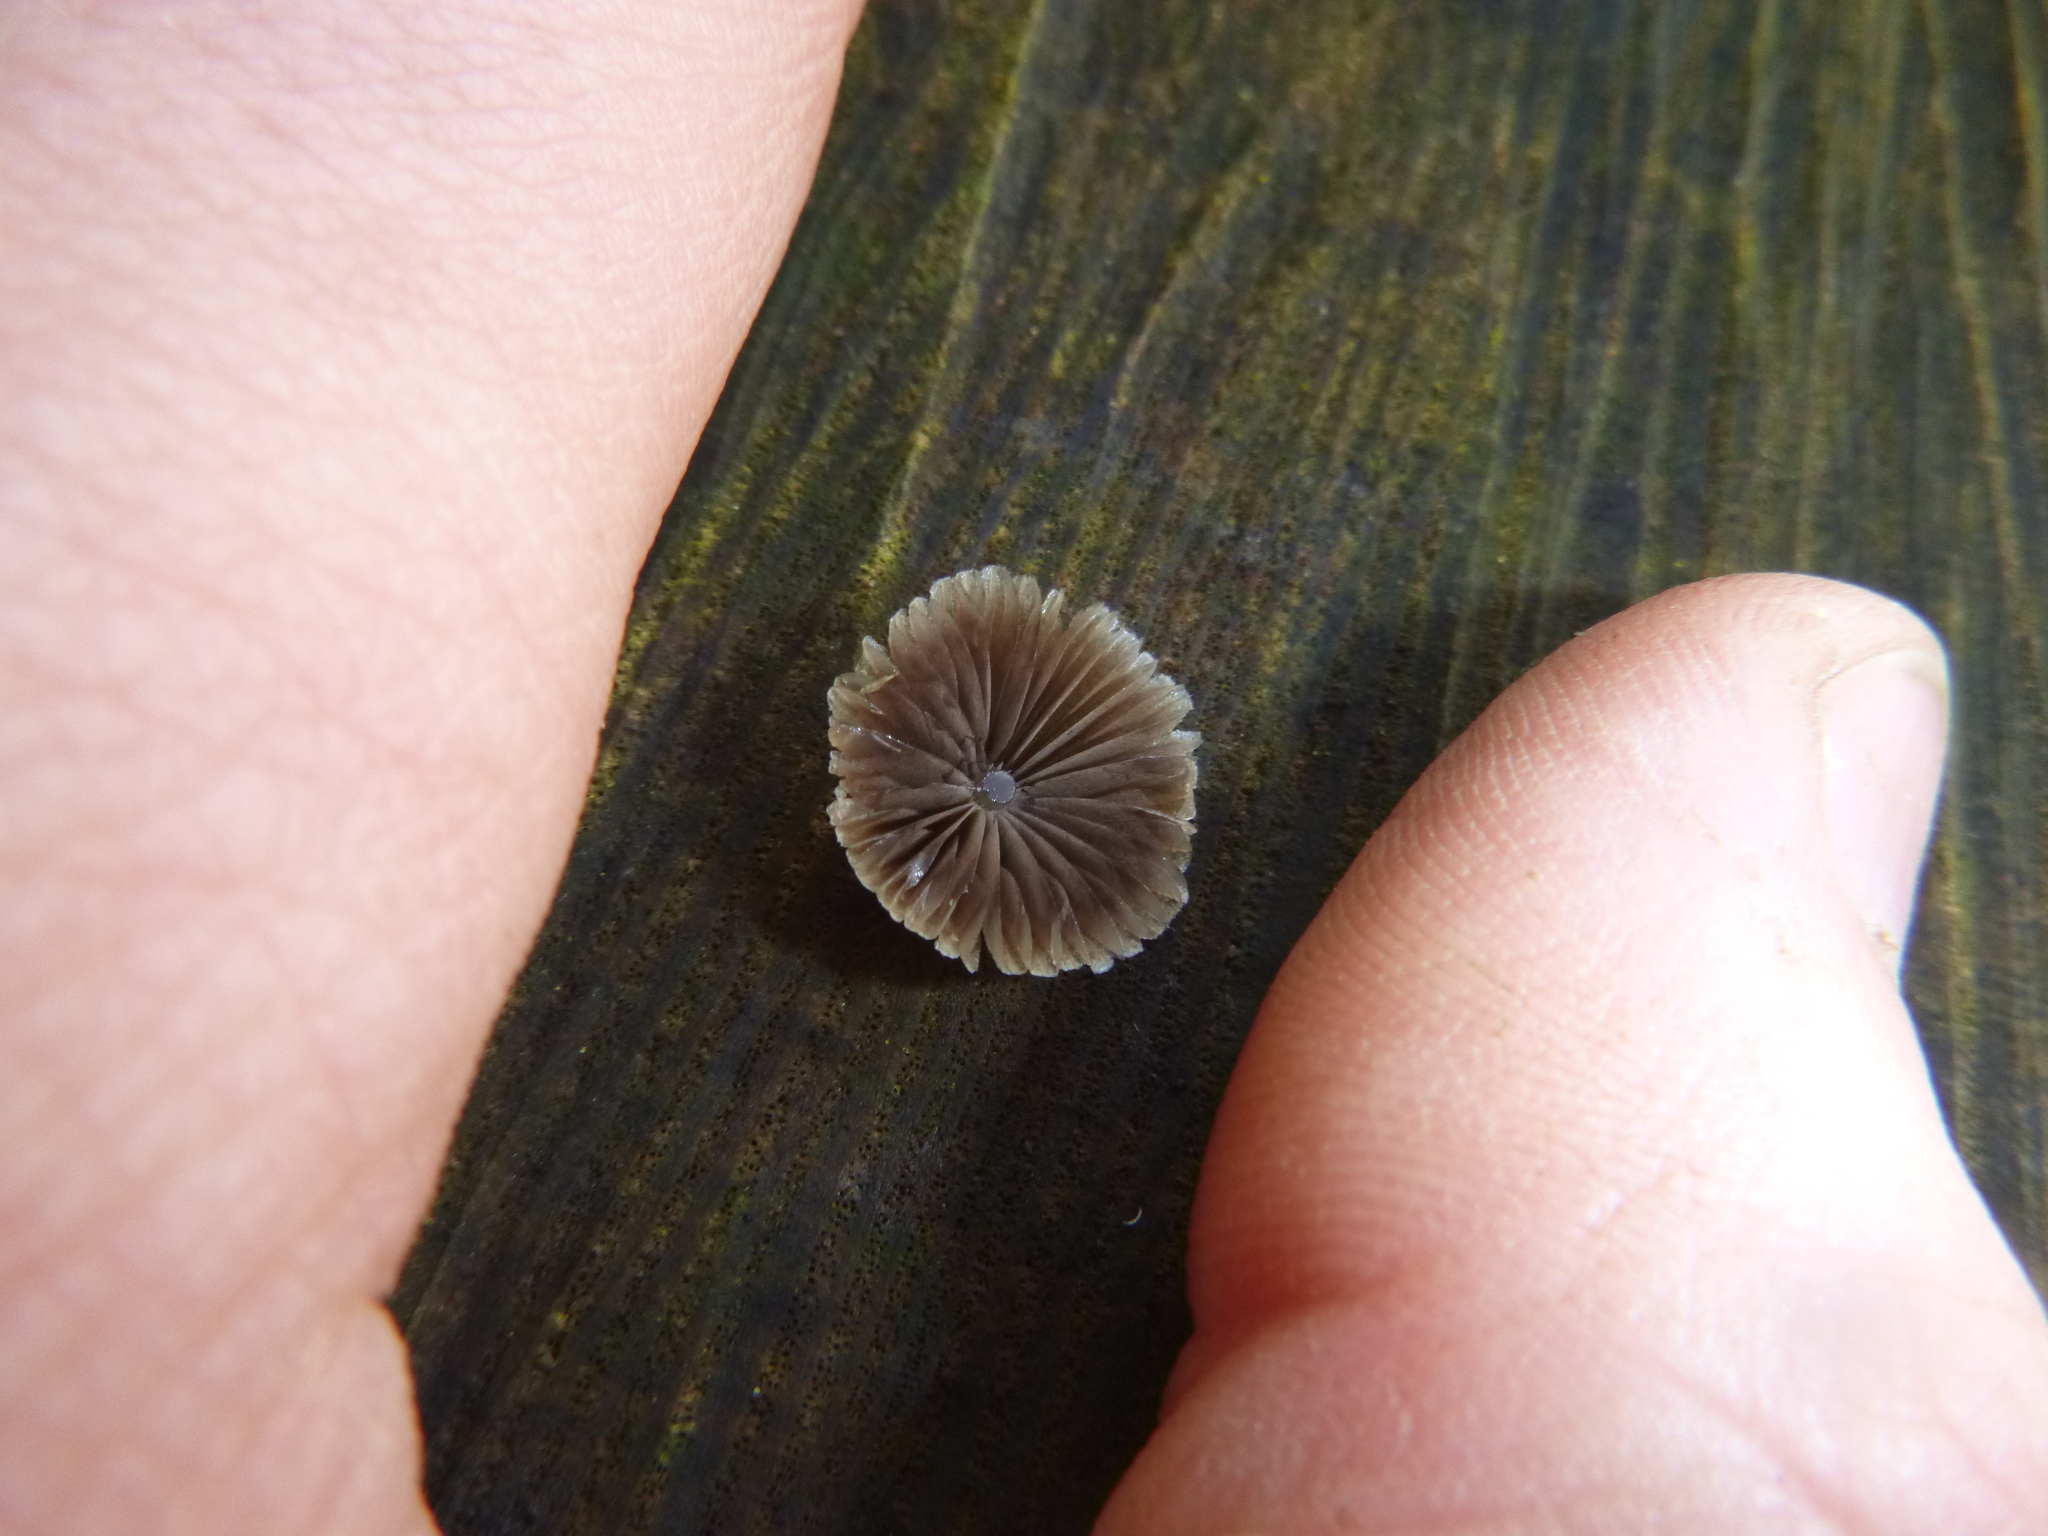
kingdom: Fungi
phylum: Basidiomycota
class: Agaricomycetes
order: Agaricales
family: Psathyrellaceae
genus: Coprinellus
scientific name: Coprinellus disseminatus
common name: Fairies' bonnets
